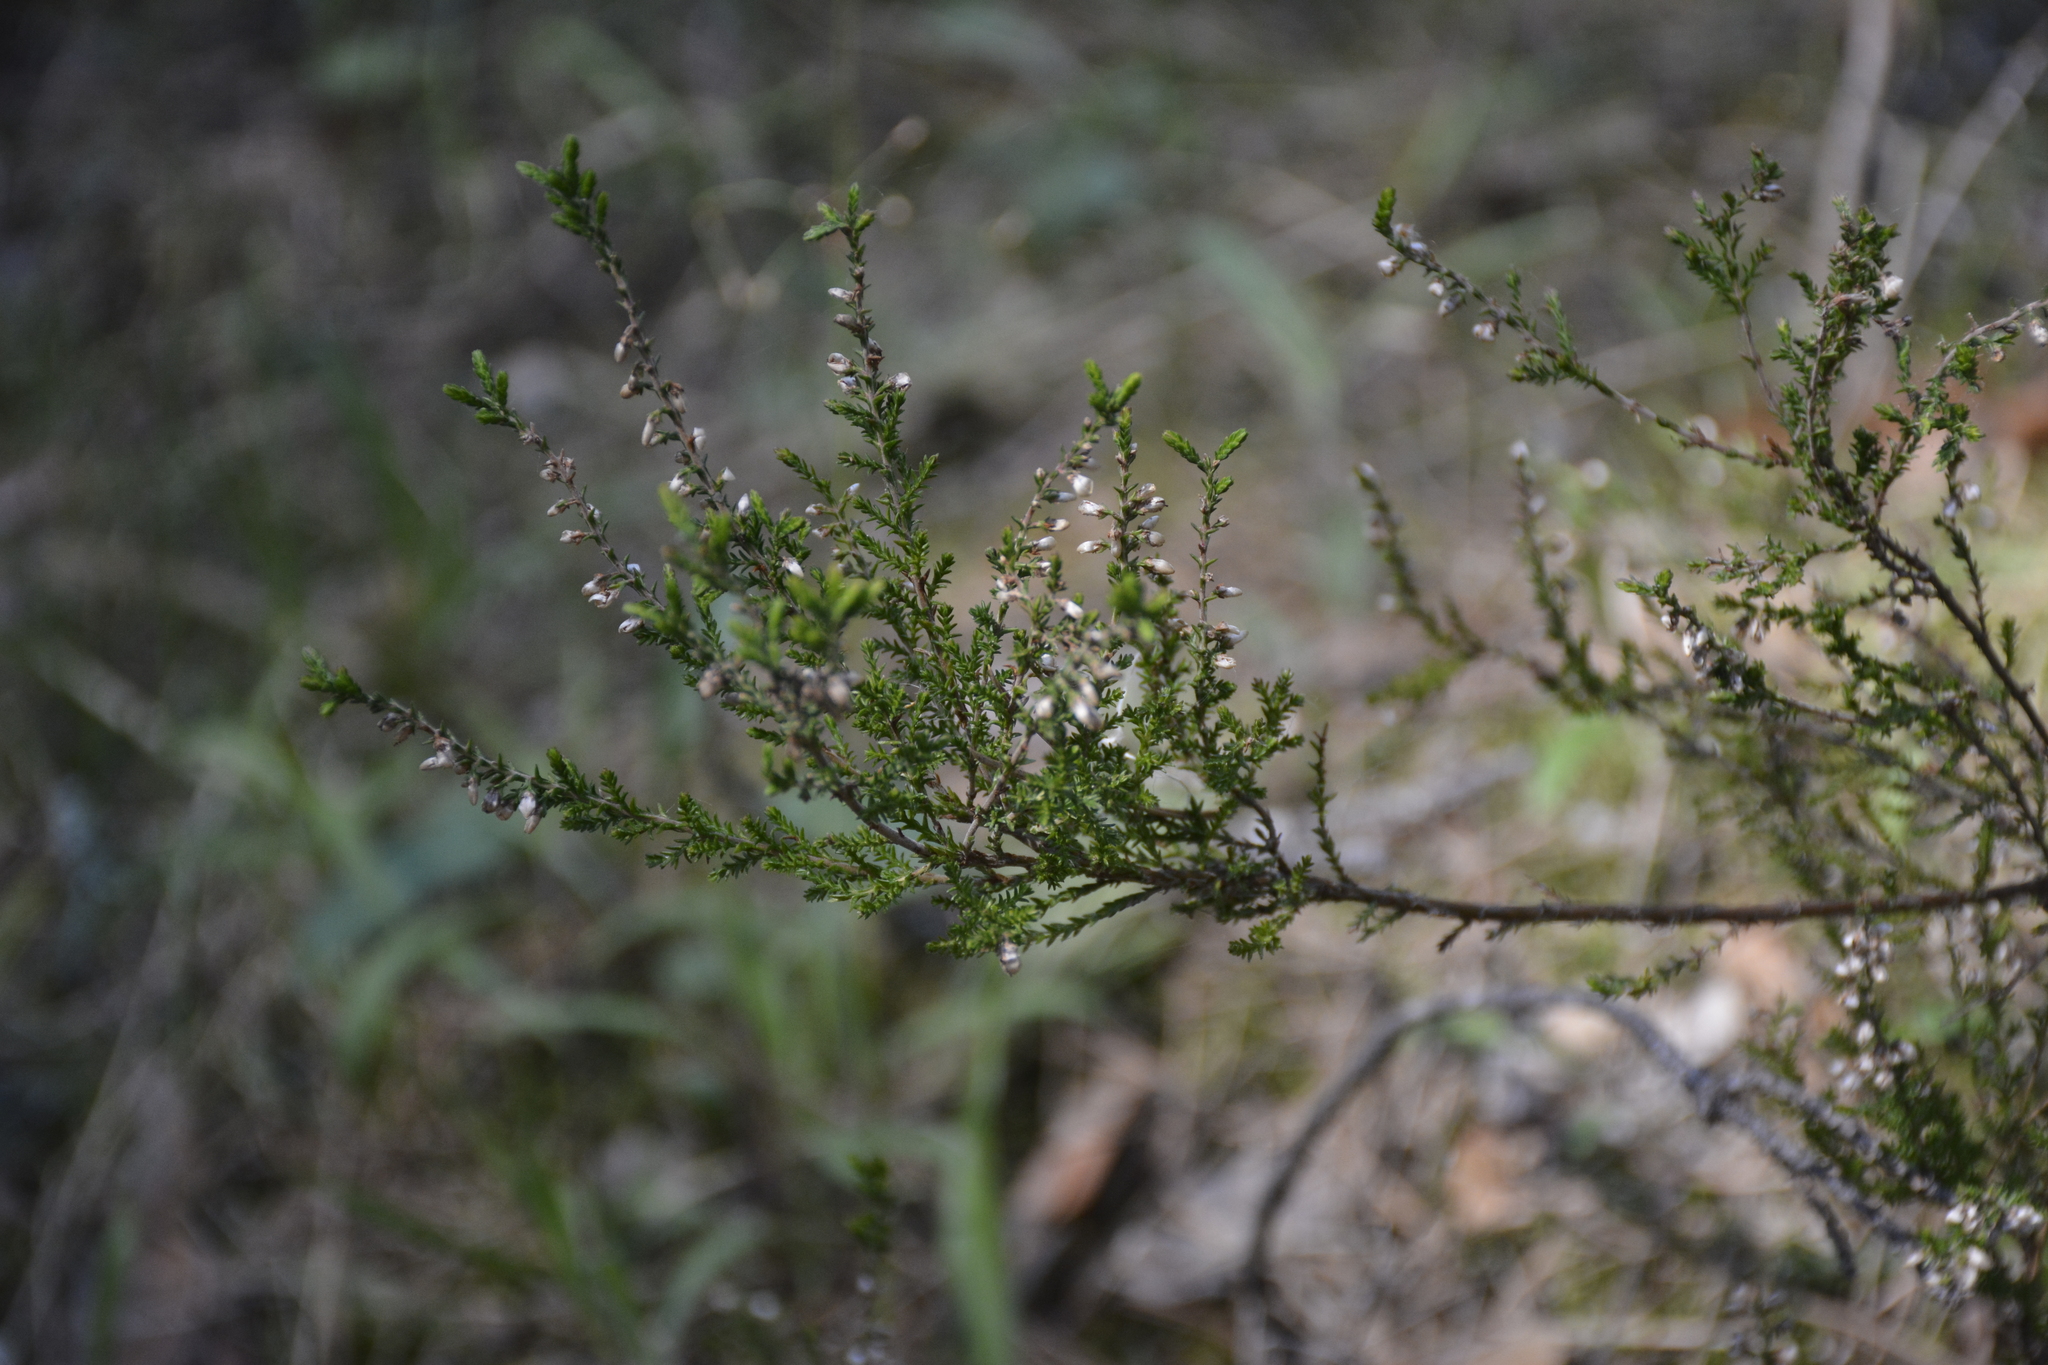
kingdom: Plantae
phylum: Tracheophyta
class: Magnoliopsida
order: Ericales
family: Ericaceae
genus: Calluna
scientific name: Calluna vulgaris
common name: Heather
